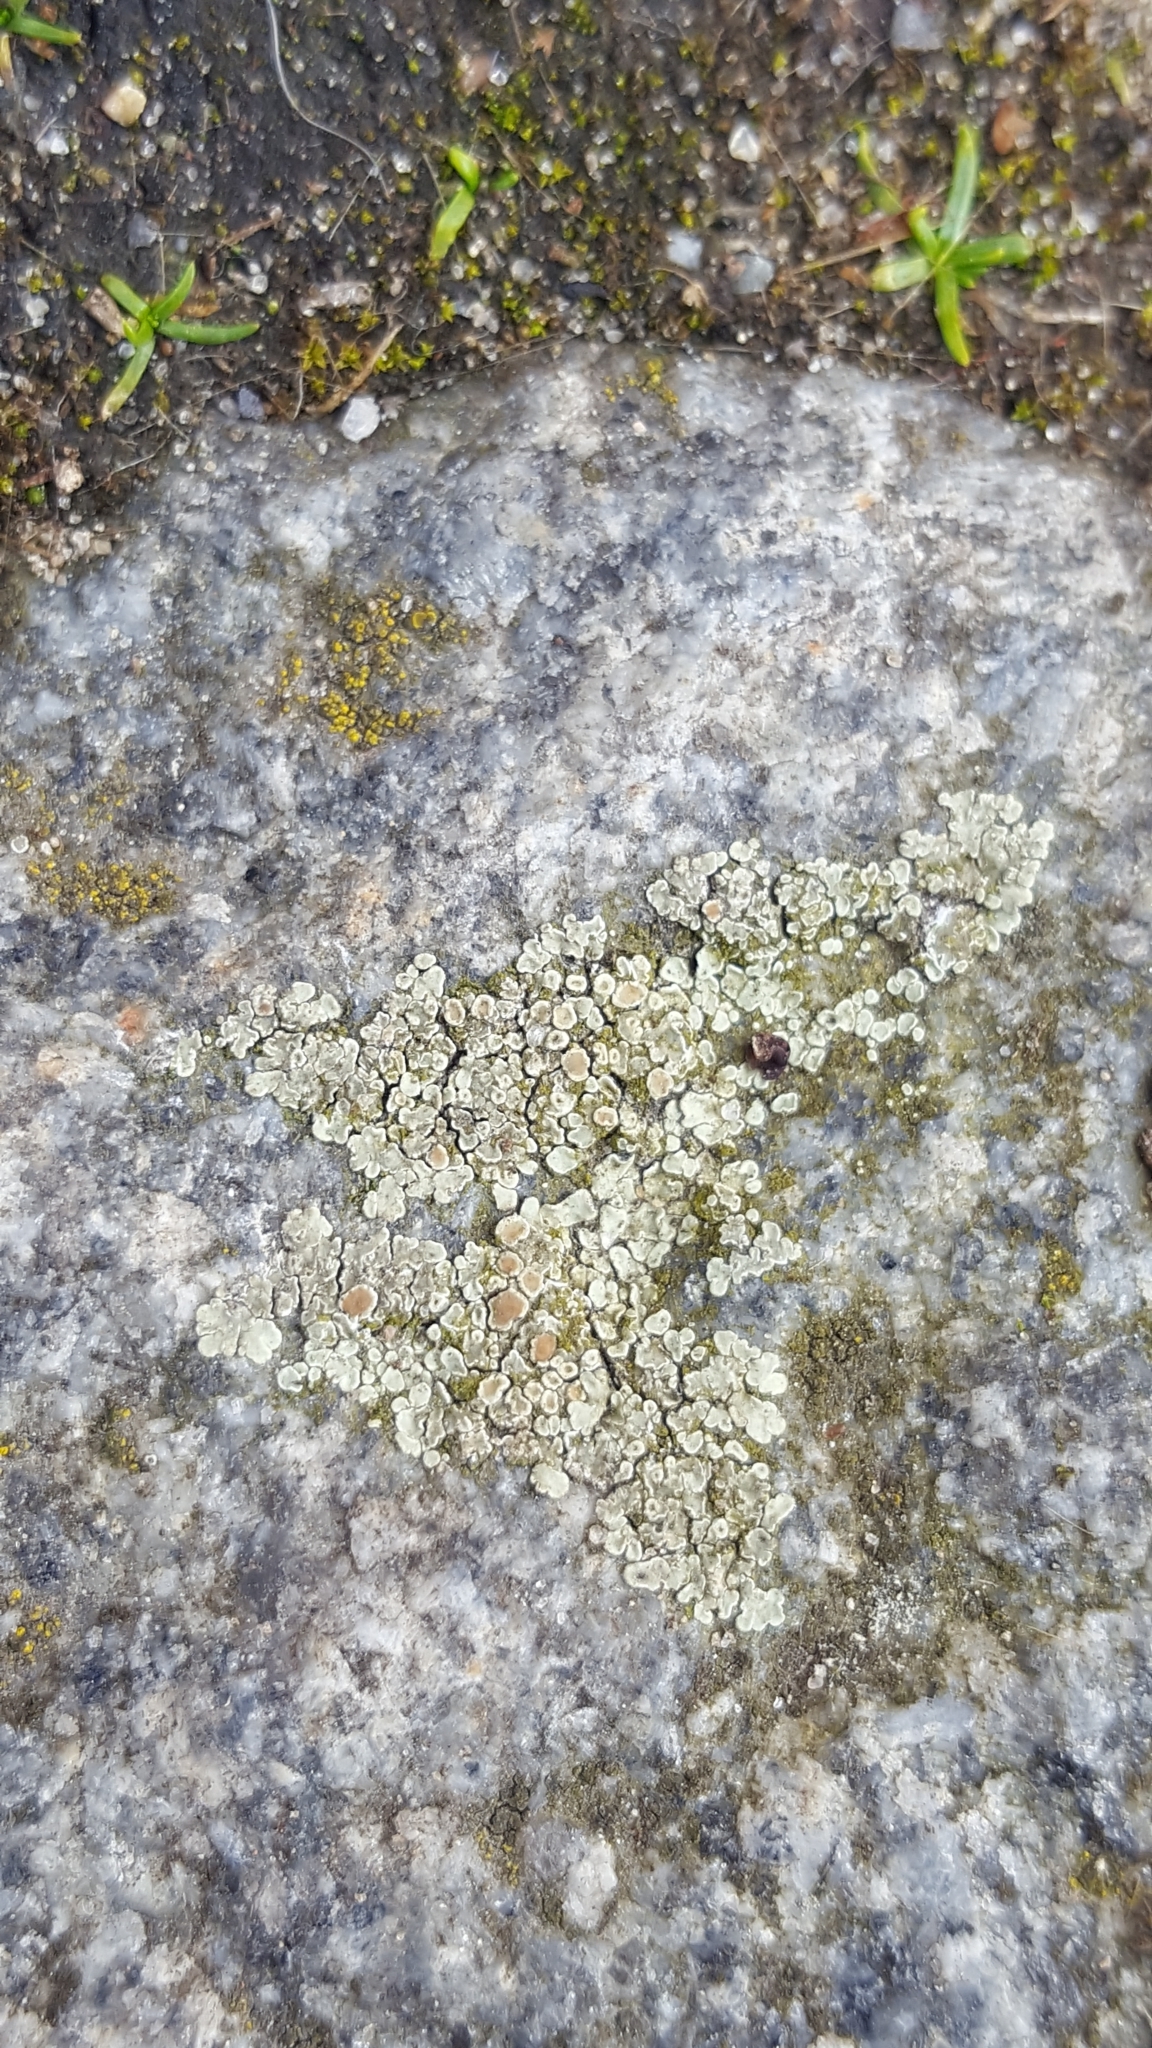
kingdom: Fungi
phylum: Ascomycota
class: Lecanoromycetes
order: Lecanorales
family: Lecanoraceae
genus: Protoparmeliopsis
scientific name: Protoparmeliopsis muralis
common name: Stonewall rim lichen
